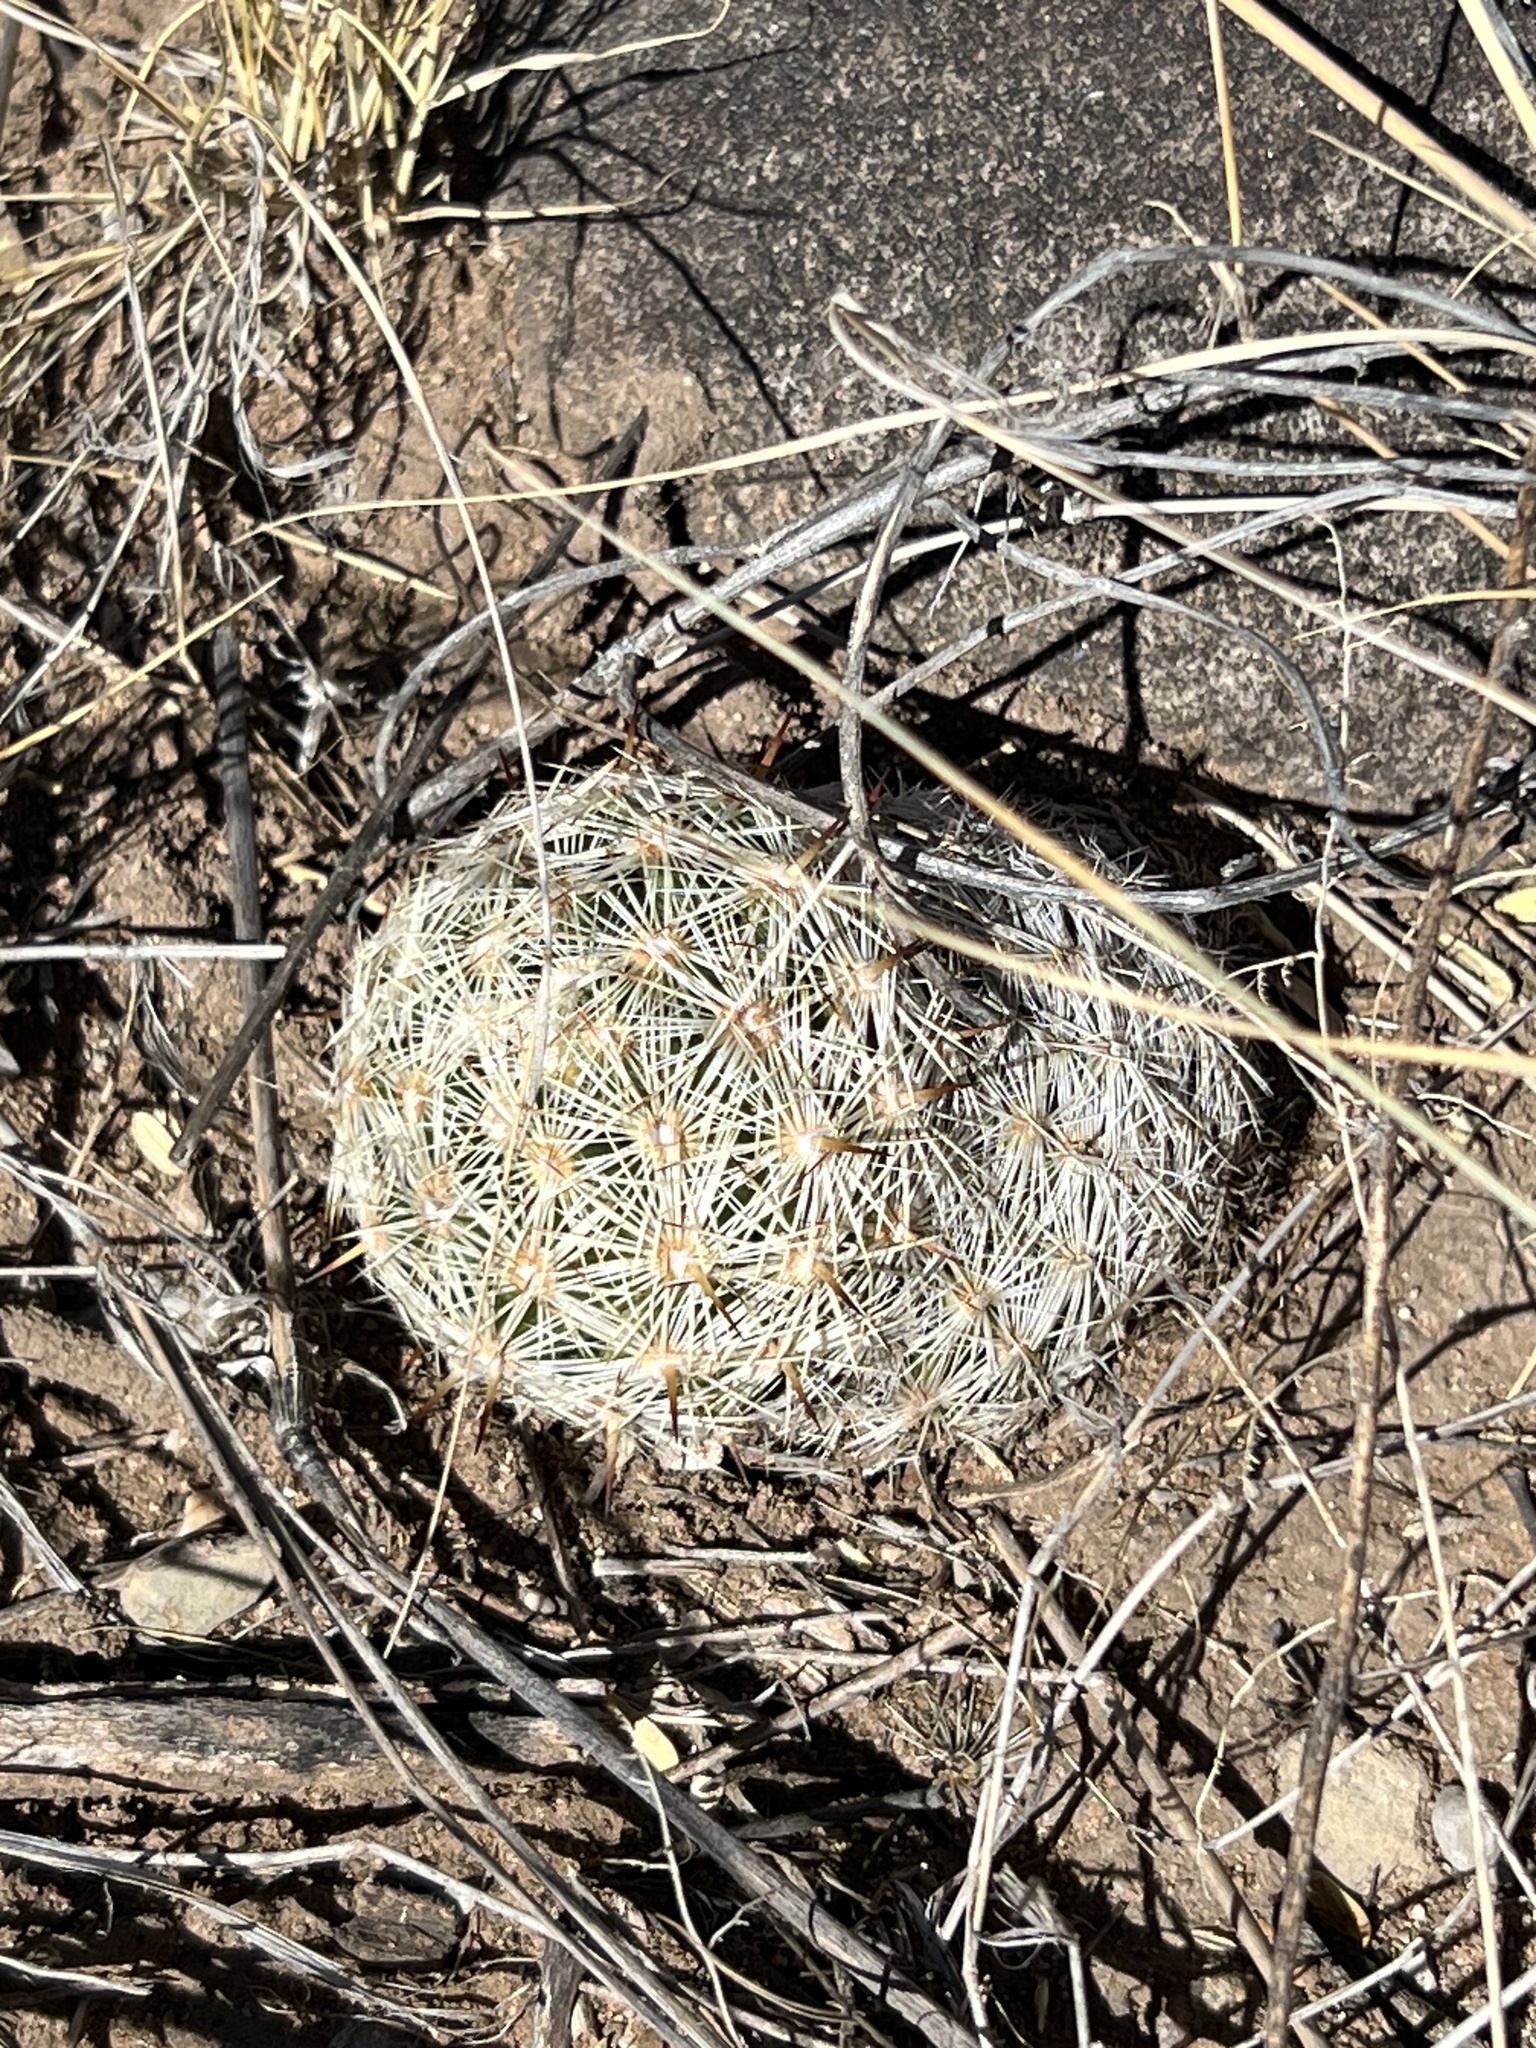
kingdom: Plantae
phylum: Tracheophyta
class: Magnoliopsida
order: Caryophyllales
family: Cactaceae
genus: Pelecyphora
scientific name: Pelecyphora vivipara
